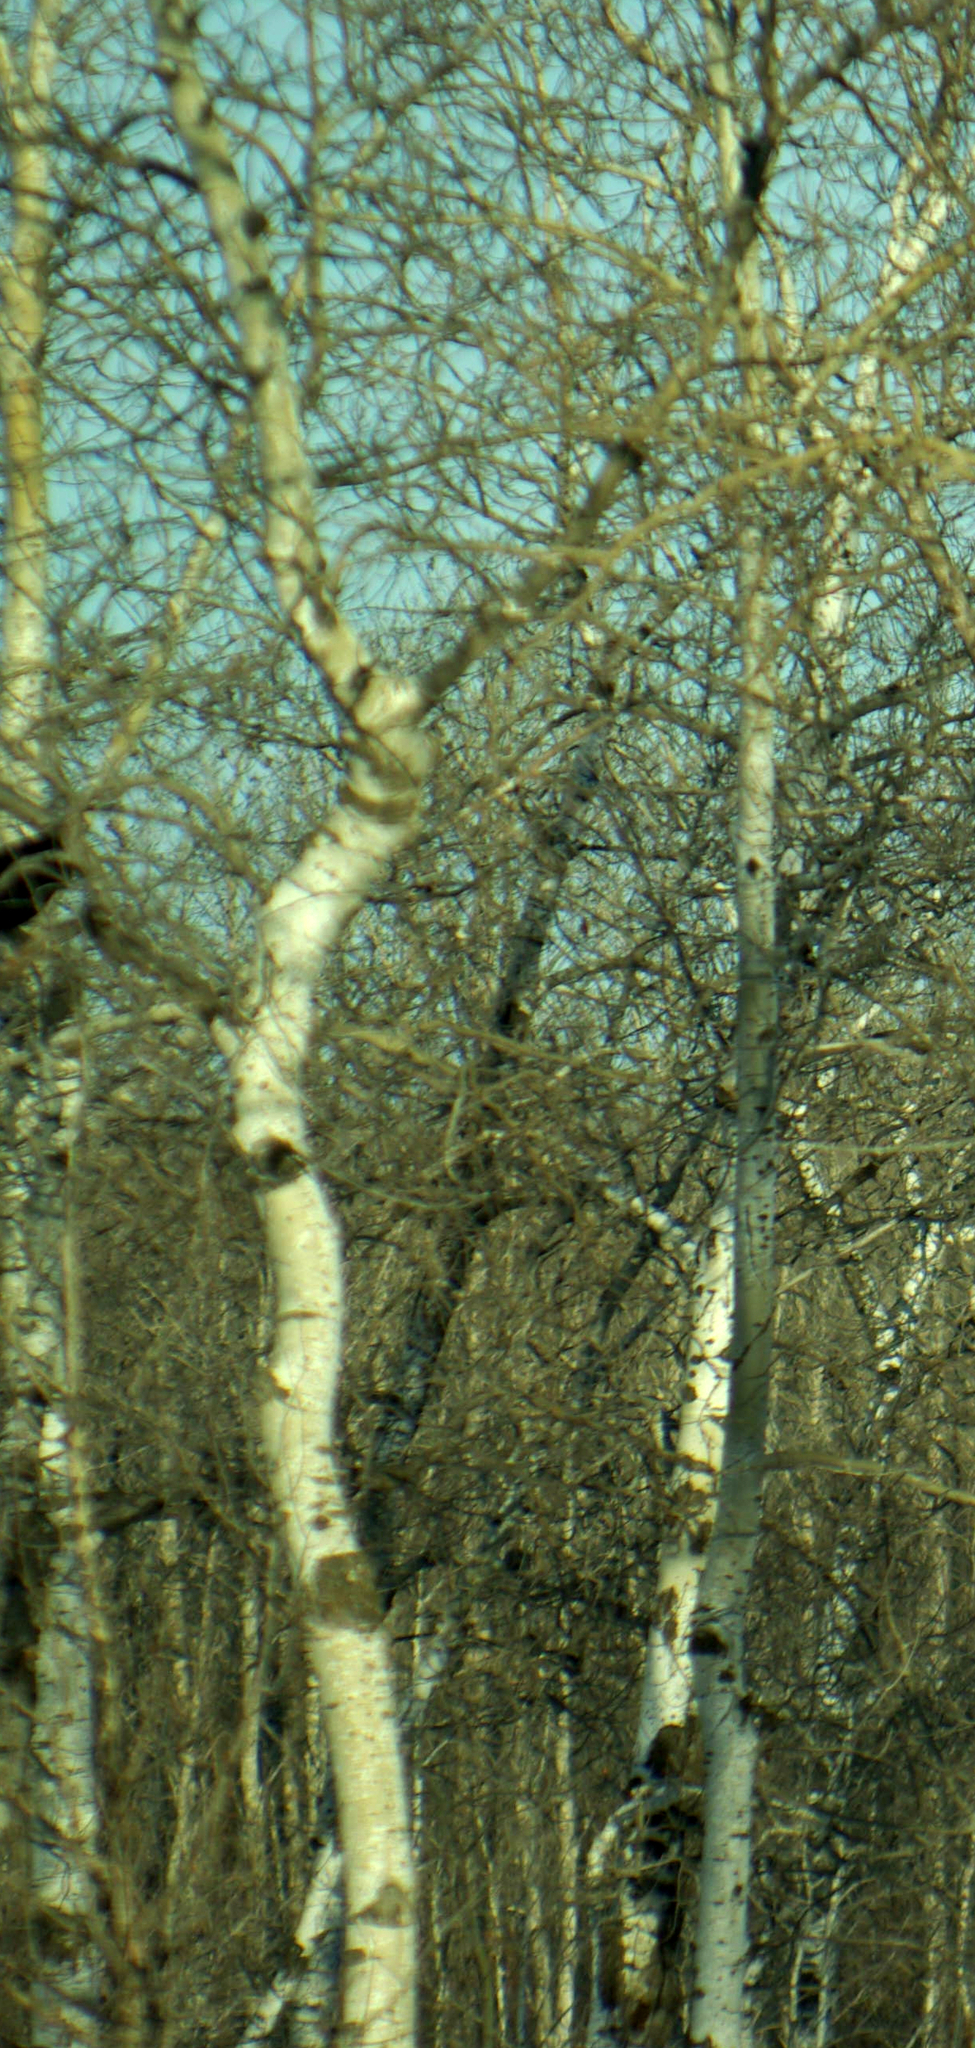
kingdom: Plantae
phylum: Tracheophyta
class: Magnoliopsida
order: Malpighiales
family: Salicaceae
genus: Populus
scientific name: Populus tremuloides
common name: Quaking aspen
